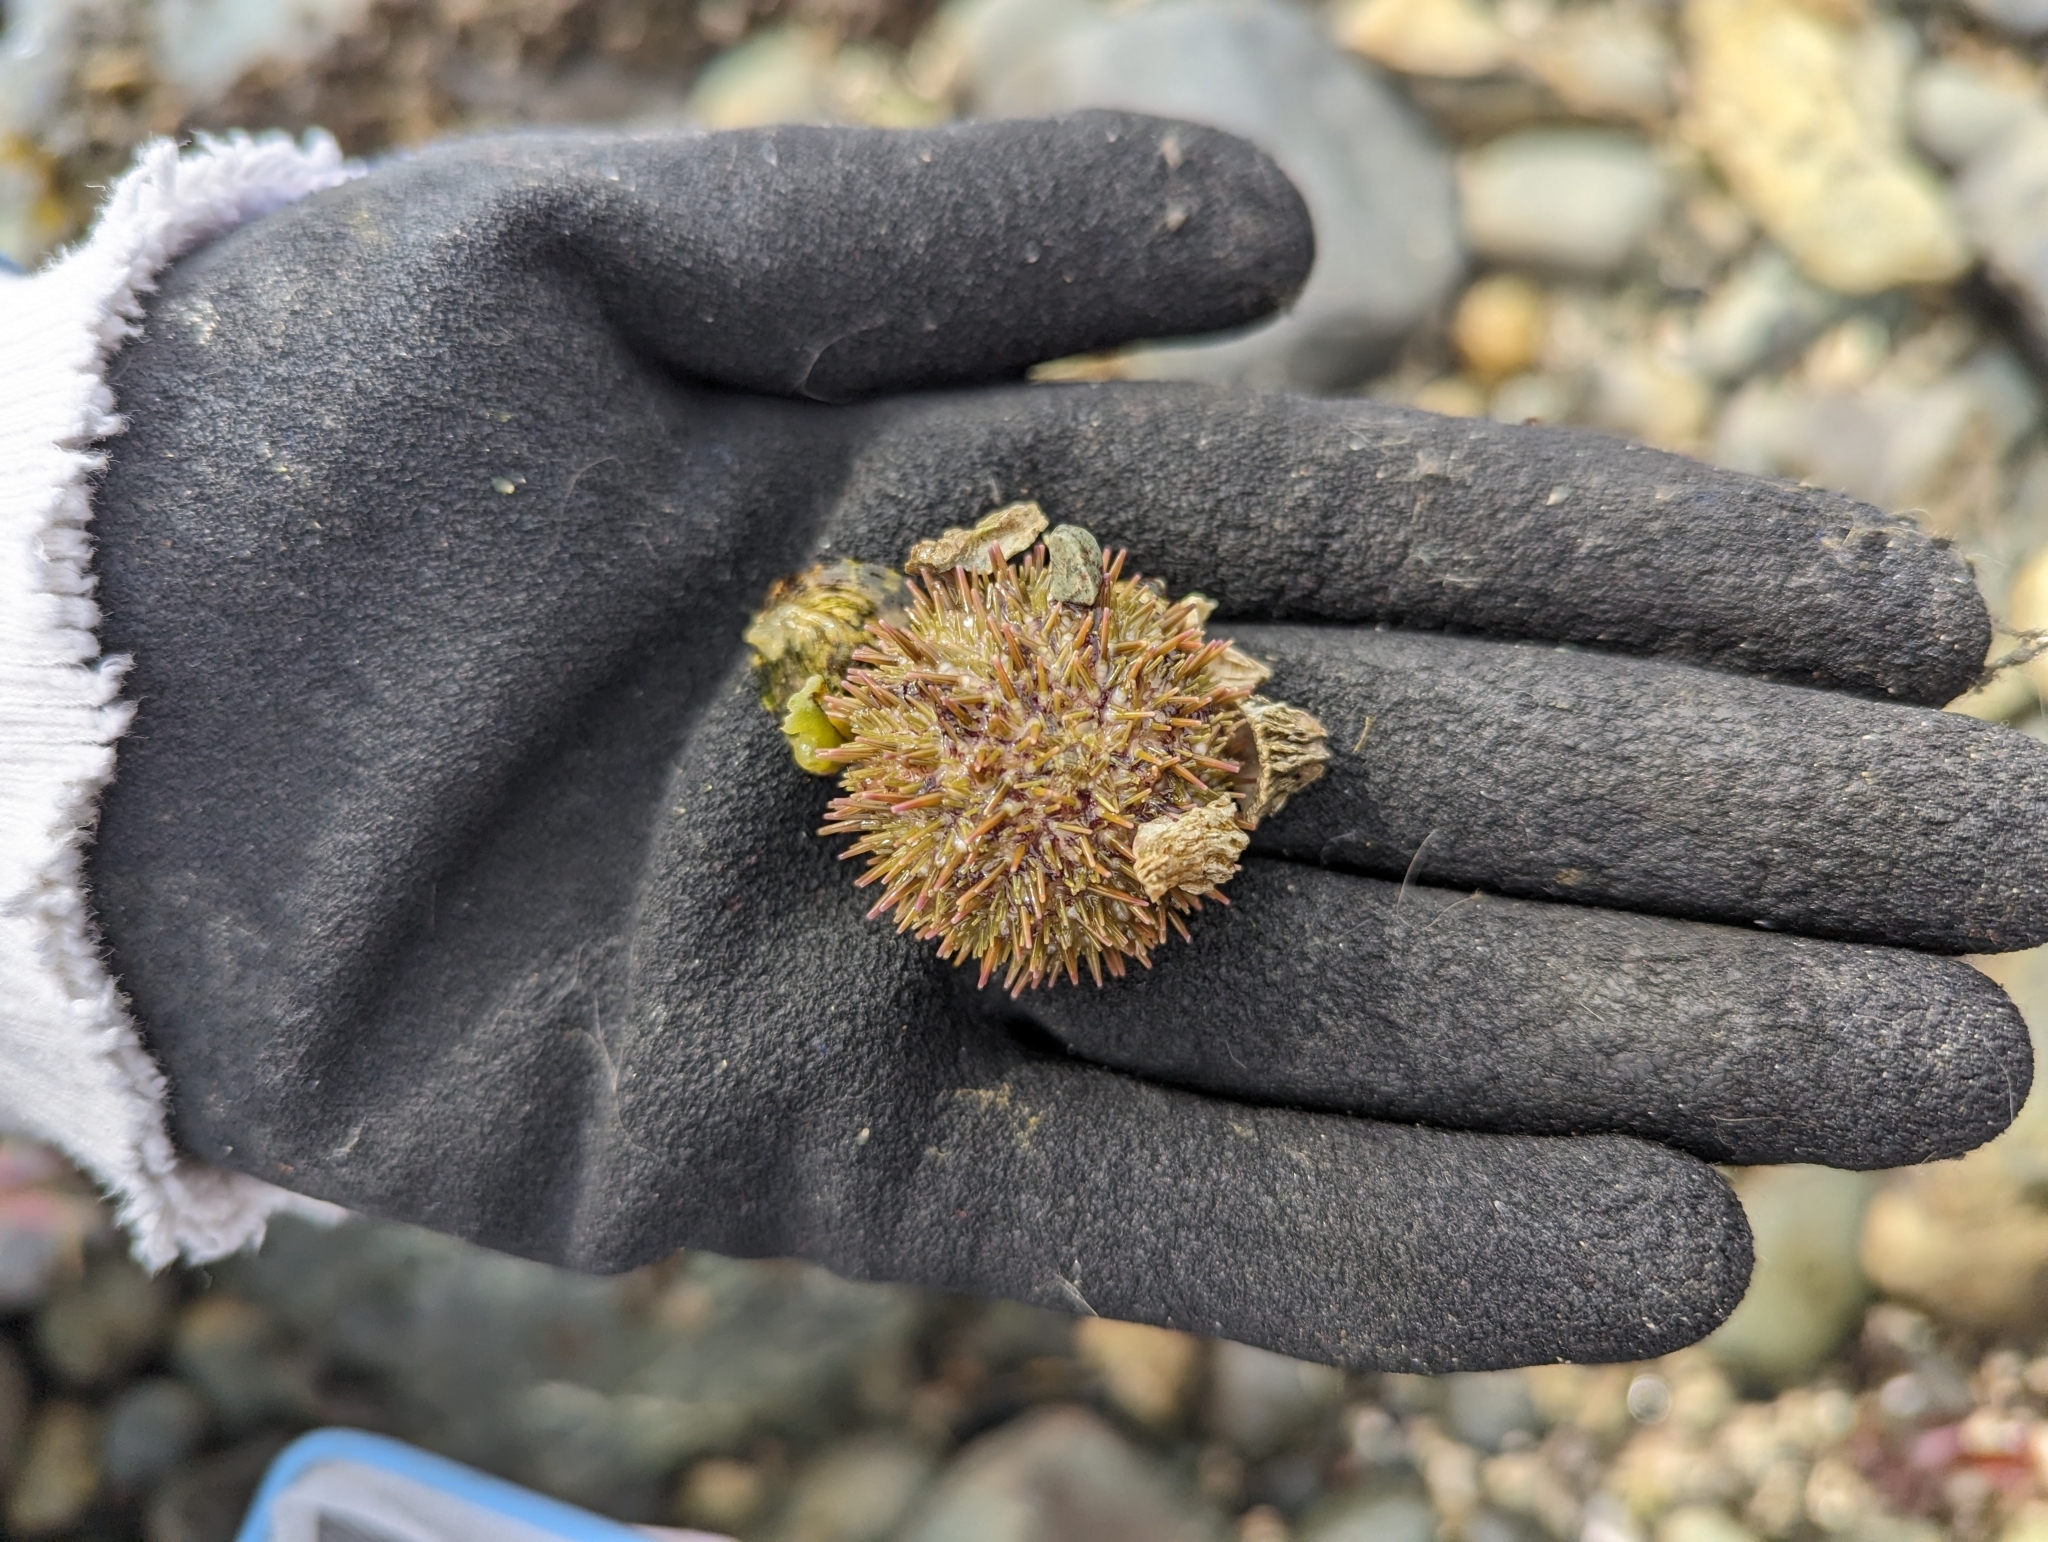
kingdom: Animalia
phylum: Echinodermata
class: Echinoidea
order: Camarodonta
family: Strongylocentrotidae
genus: Strongylocentrotus
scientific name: Strongylocentrotus droebachiensis
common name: Northern sea urchin
